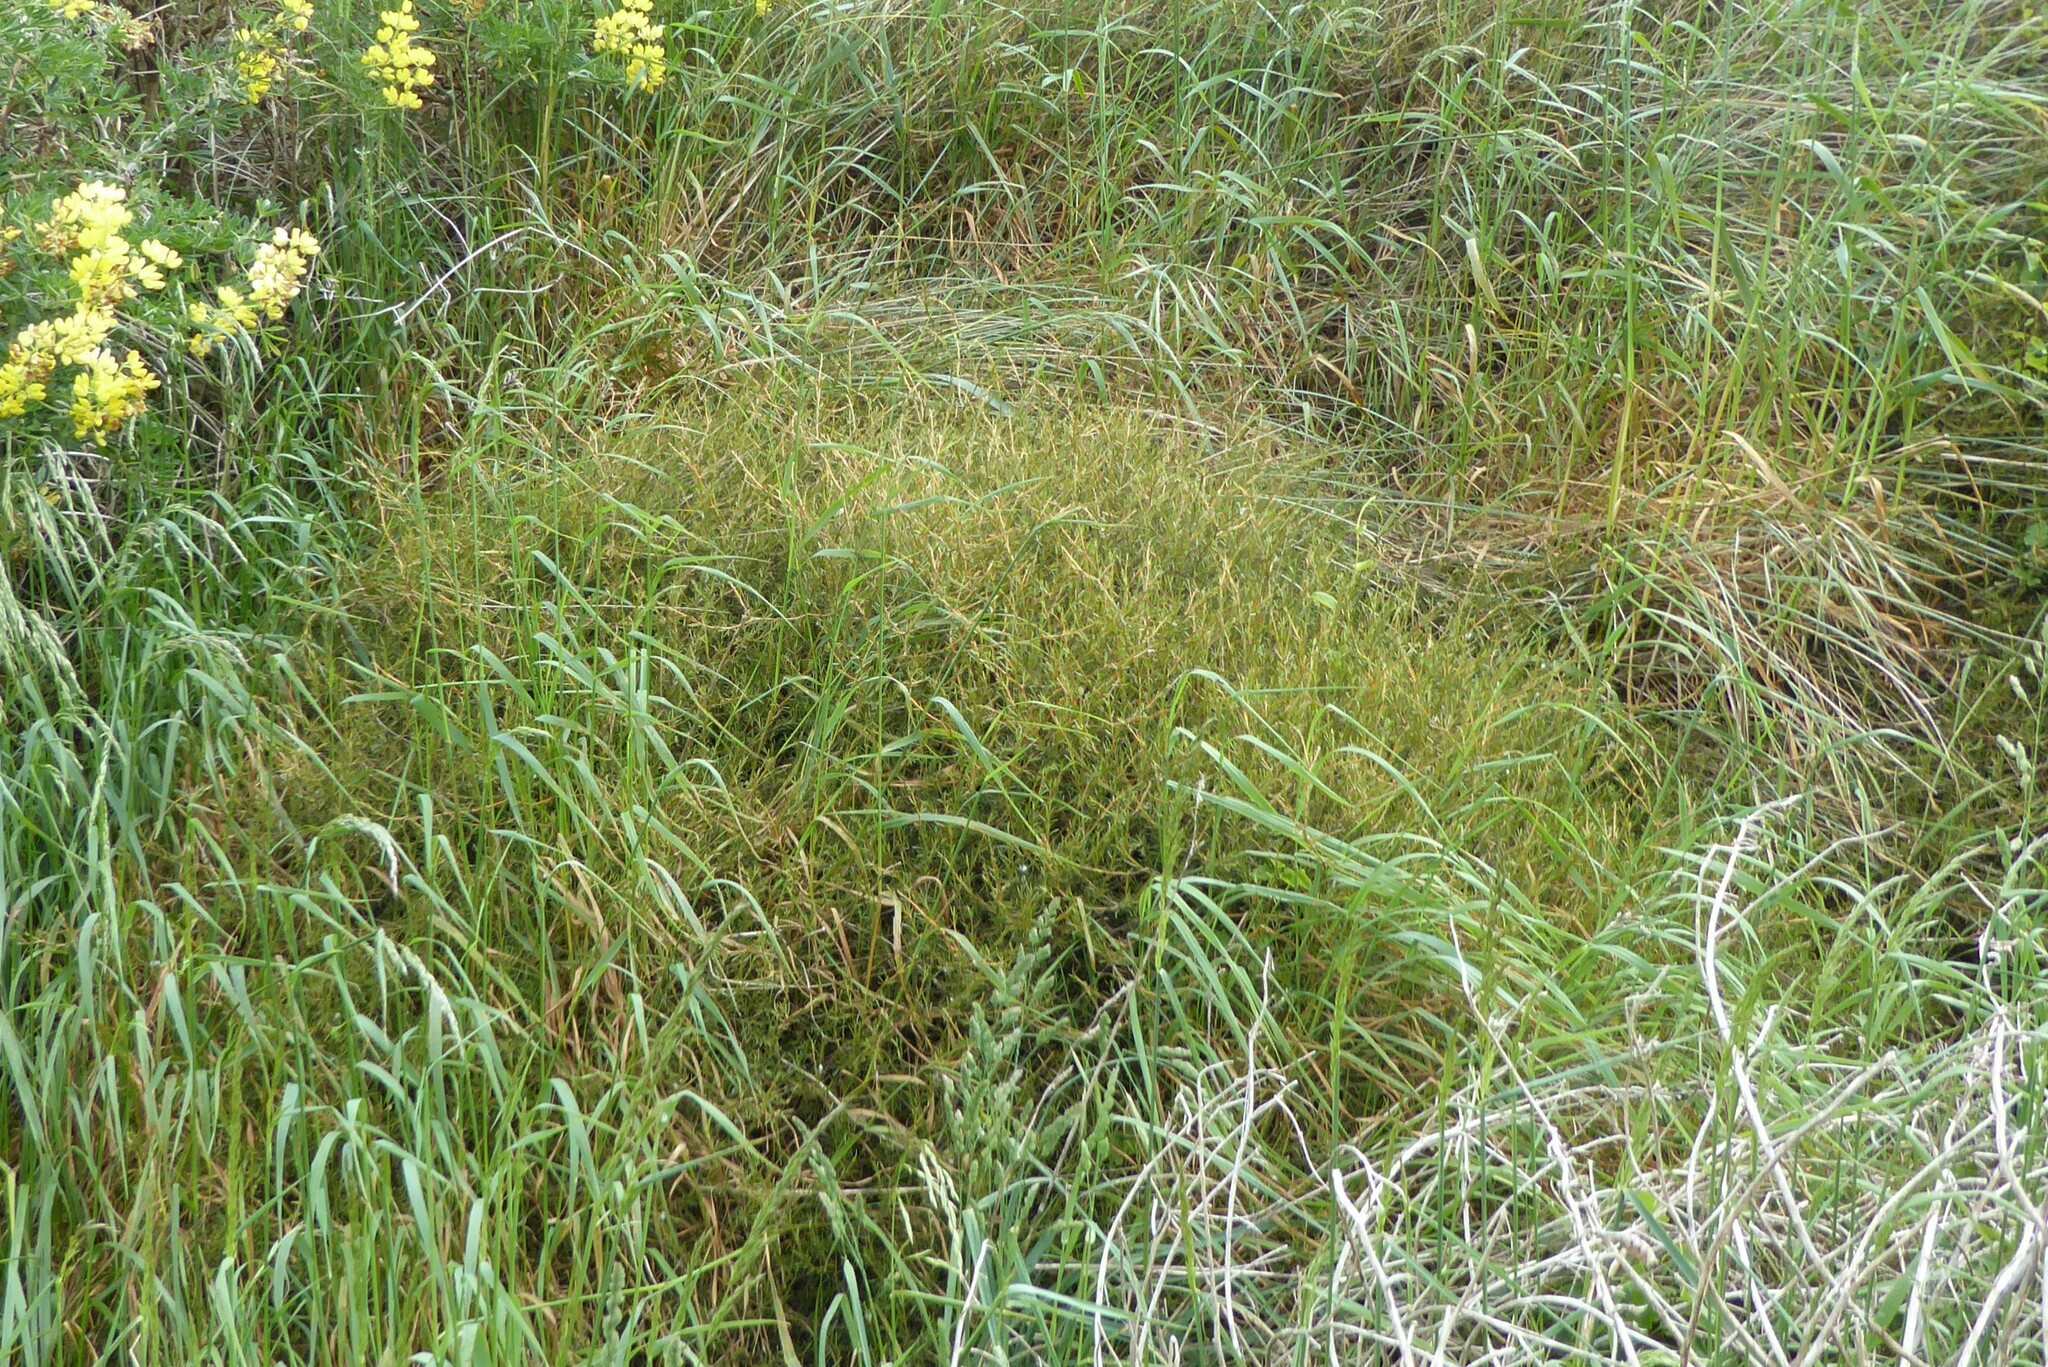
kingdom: Plantae
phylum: Tracheophyta
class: Magnoliopsida
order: Gentianales
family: Rubiaceae
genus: Coprosma
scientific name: Coprosma acerosa
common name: Sand coprosma
